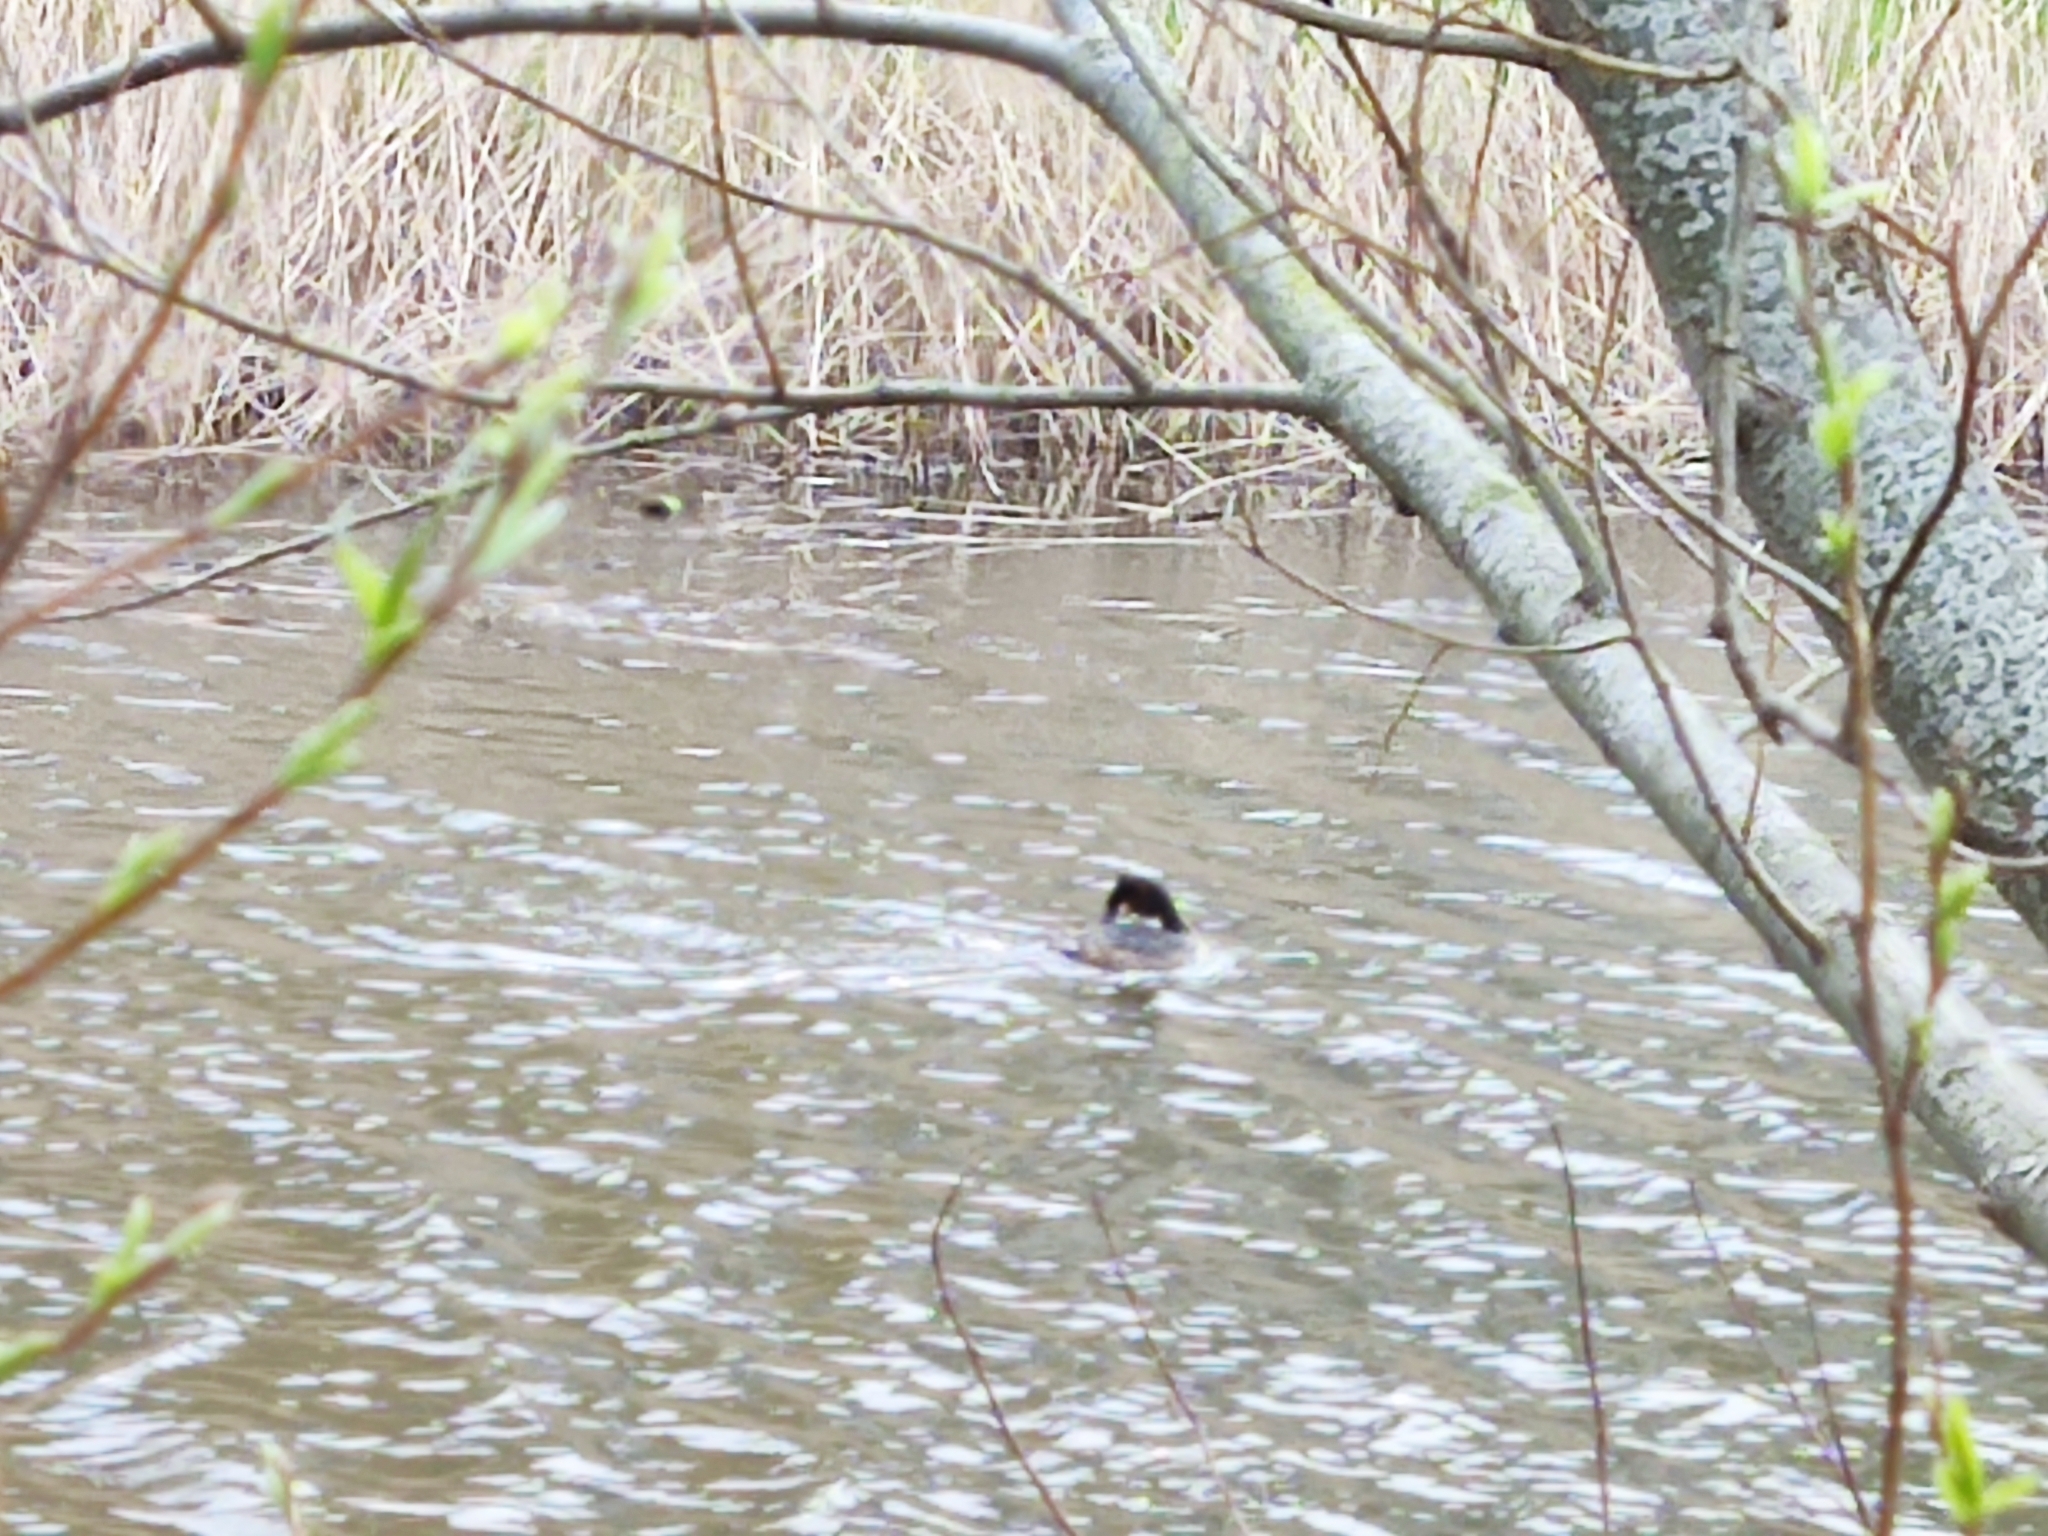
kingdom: Animalia
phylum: Chordata
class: Aves
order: Podicipediformes
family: Podicipedidae
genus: Podiceps
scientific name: Podiceps cristatus
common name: Great crested grebe
